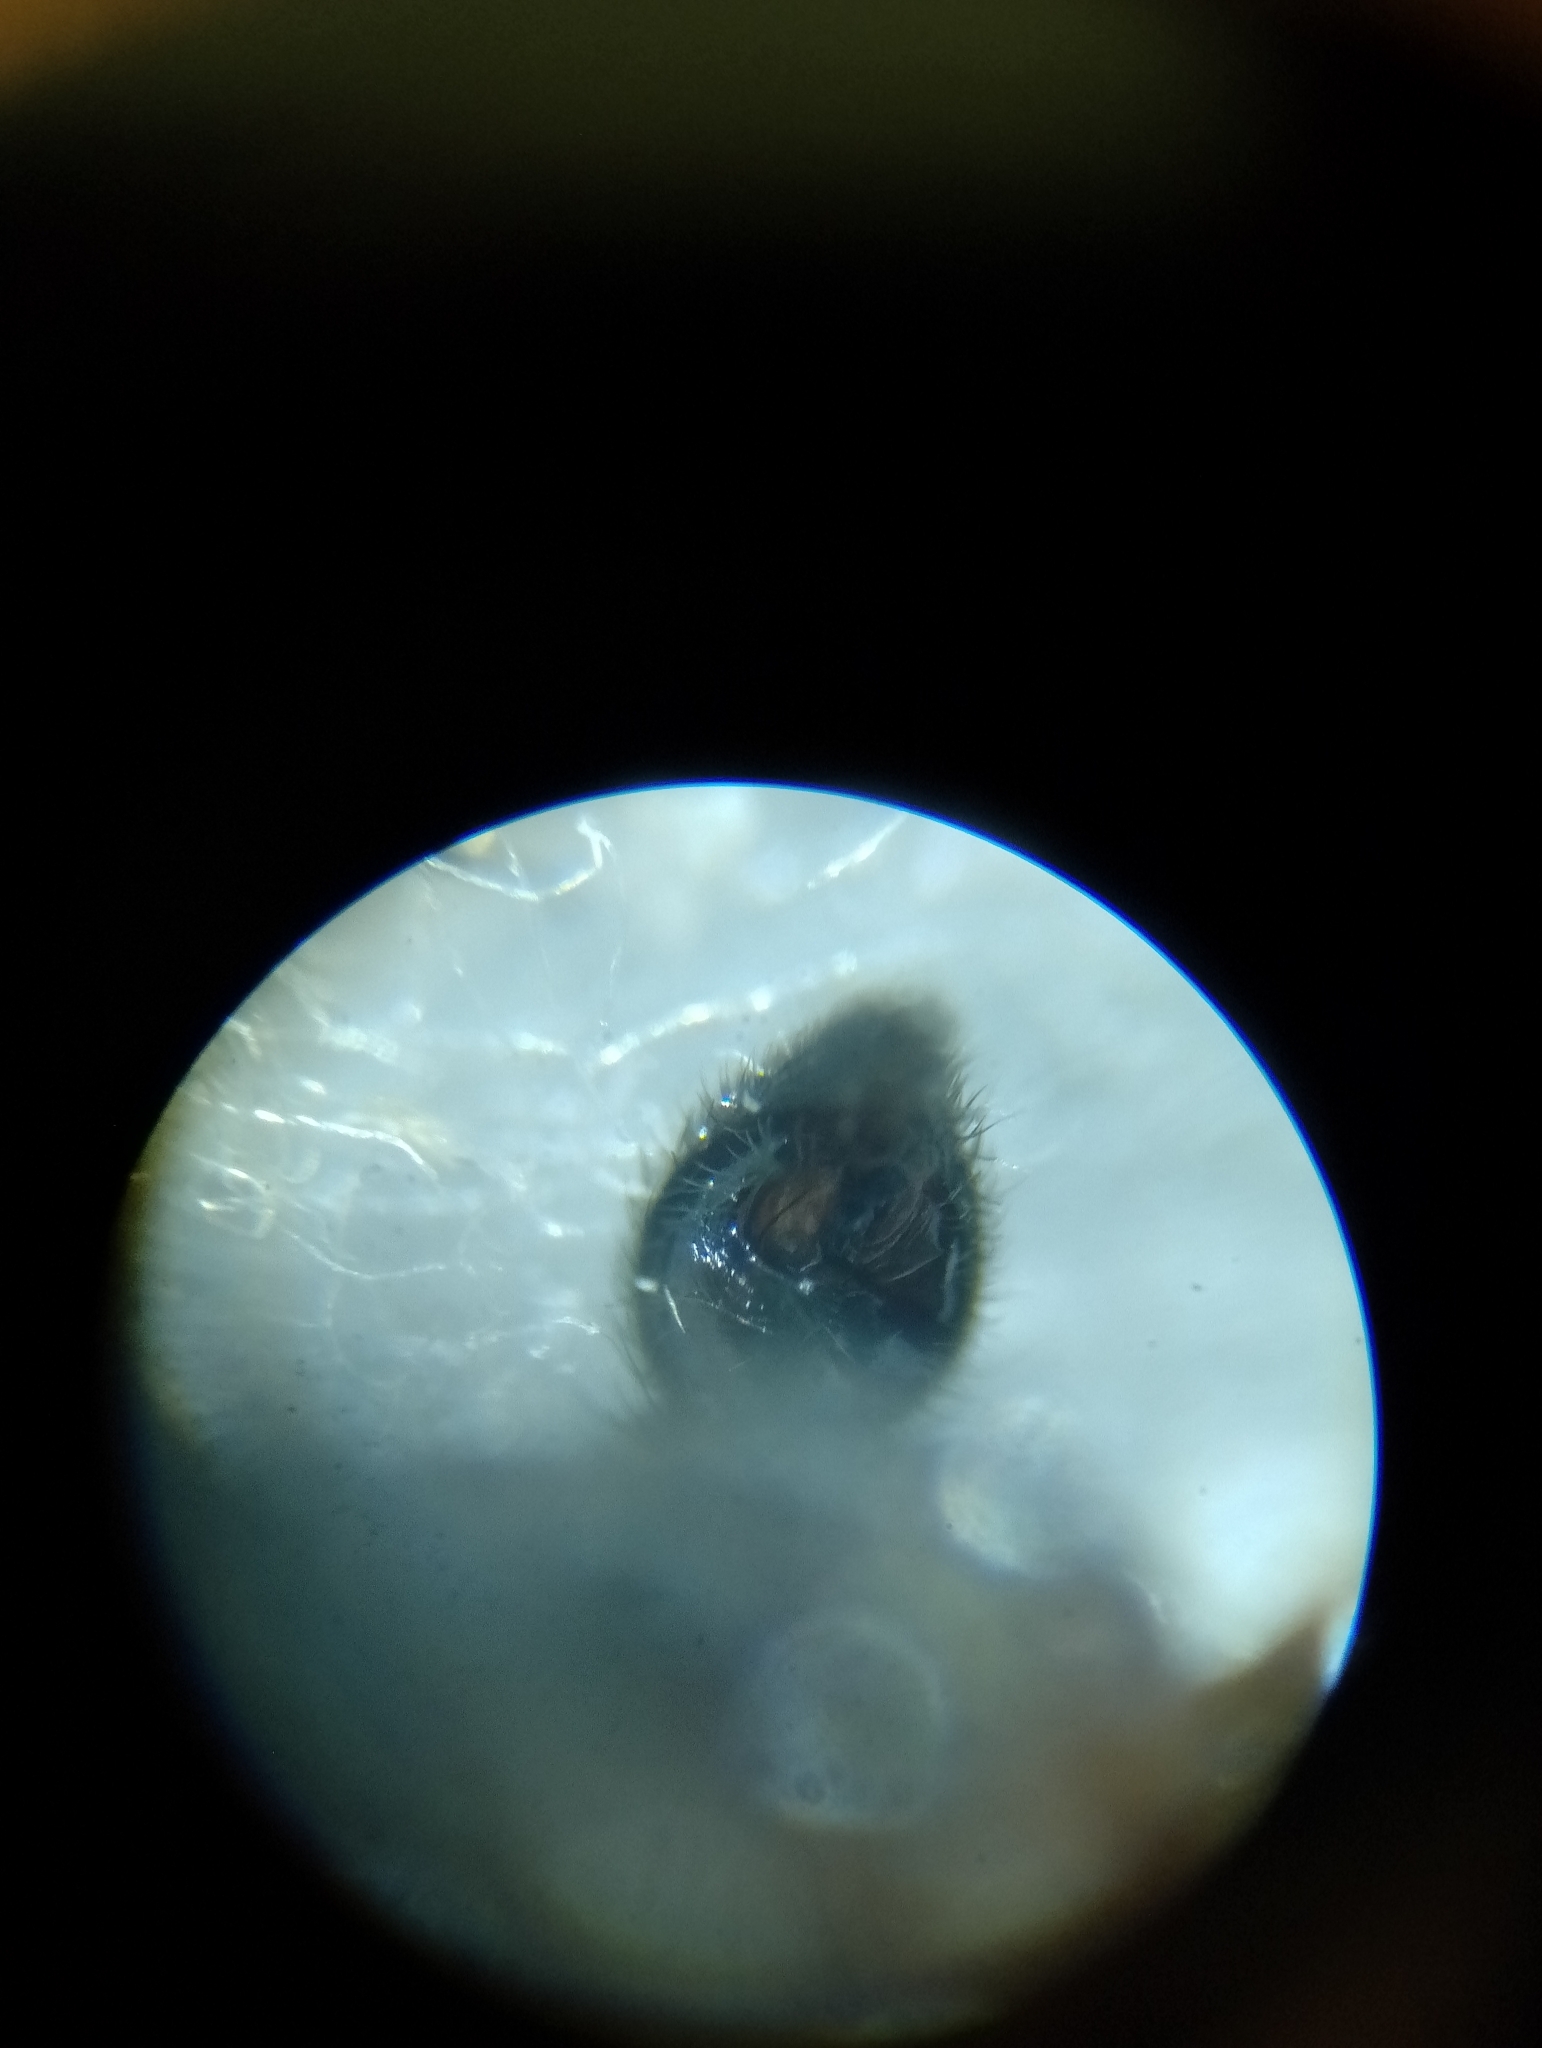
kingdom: Animalia
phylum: Arthropoda
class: Arachnida
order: Araneae
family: Lycosidae
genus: Alopecosa
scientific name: Alopecosa cuneata
